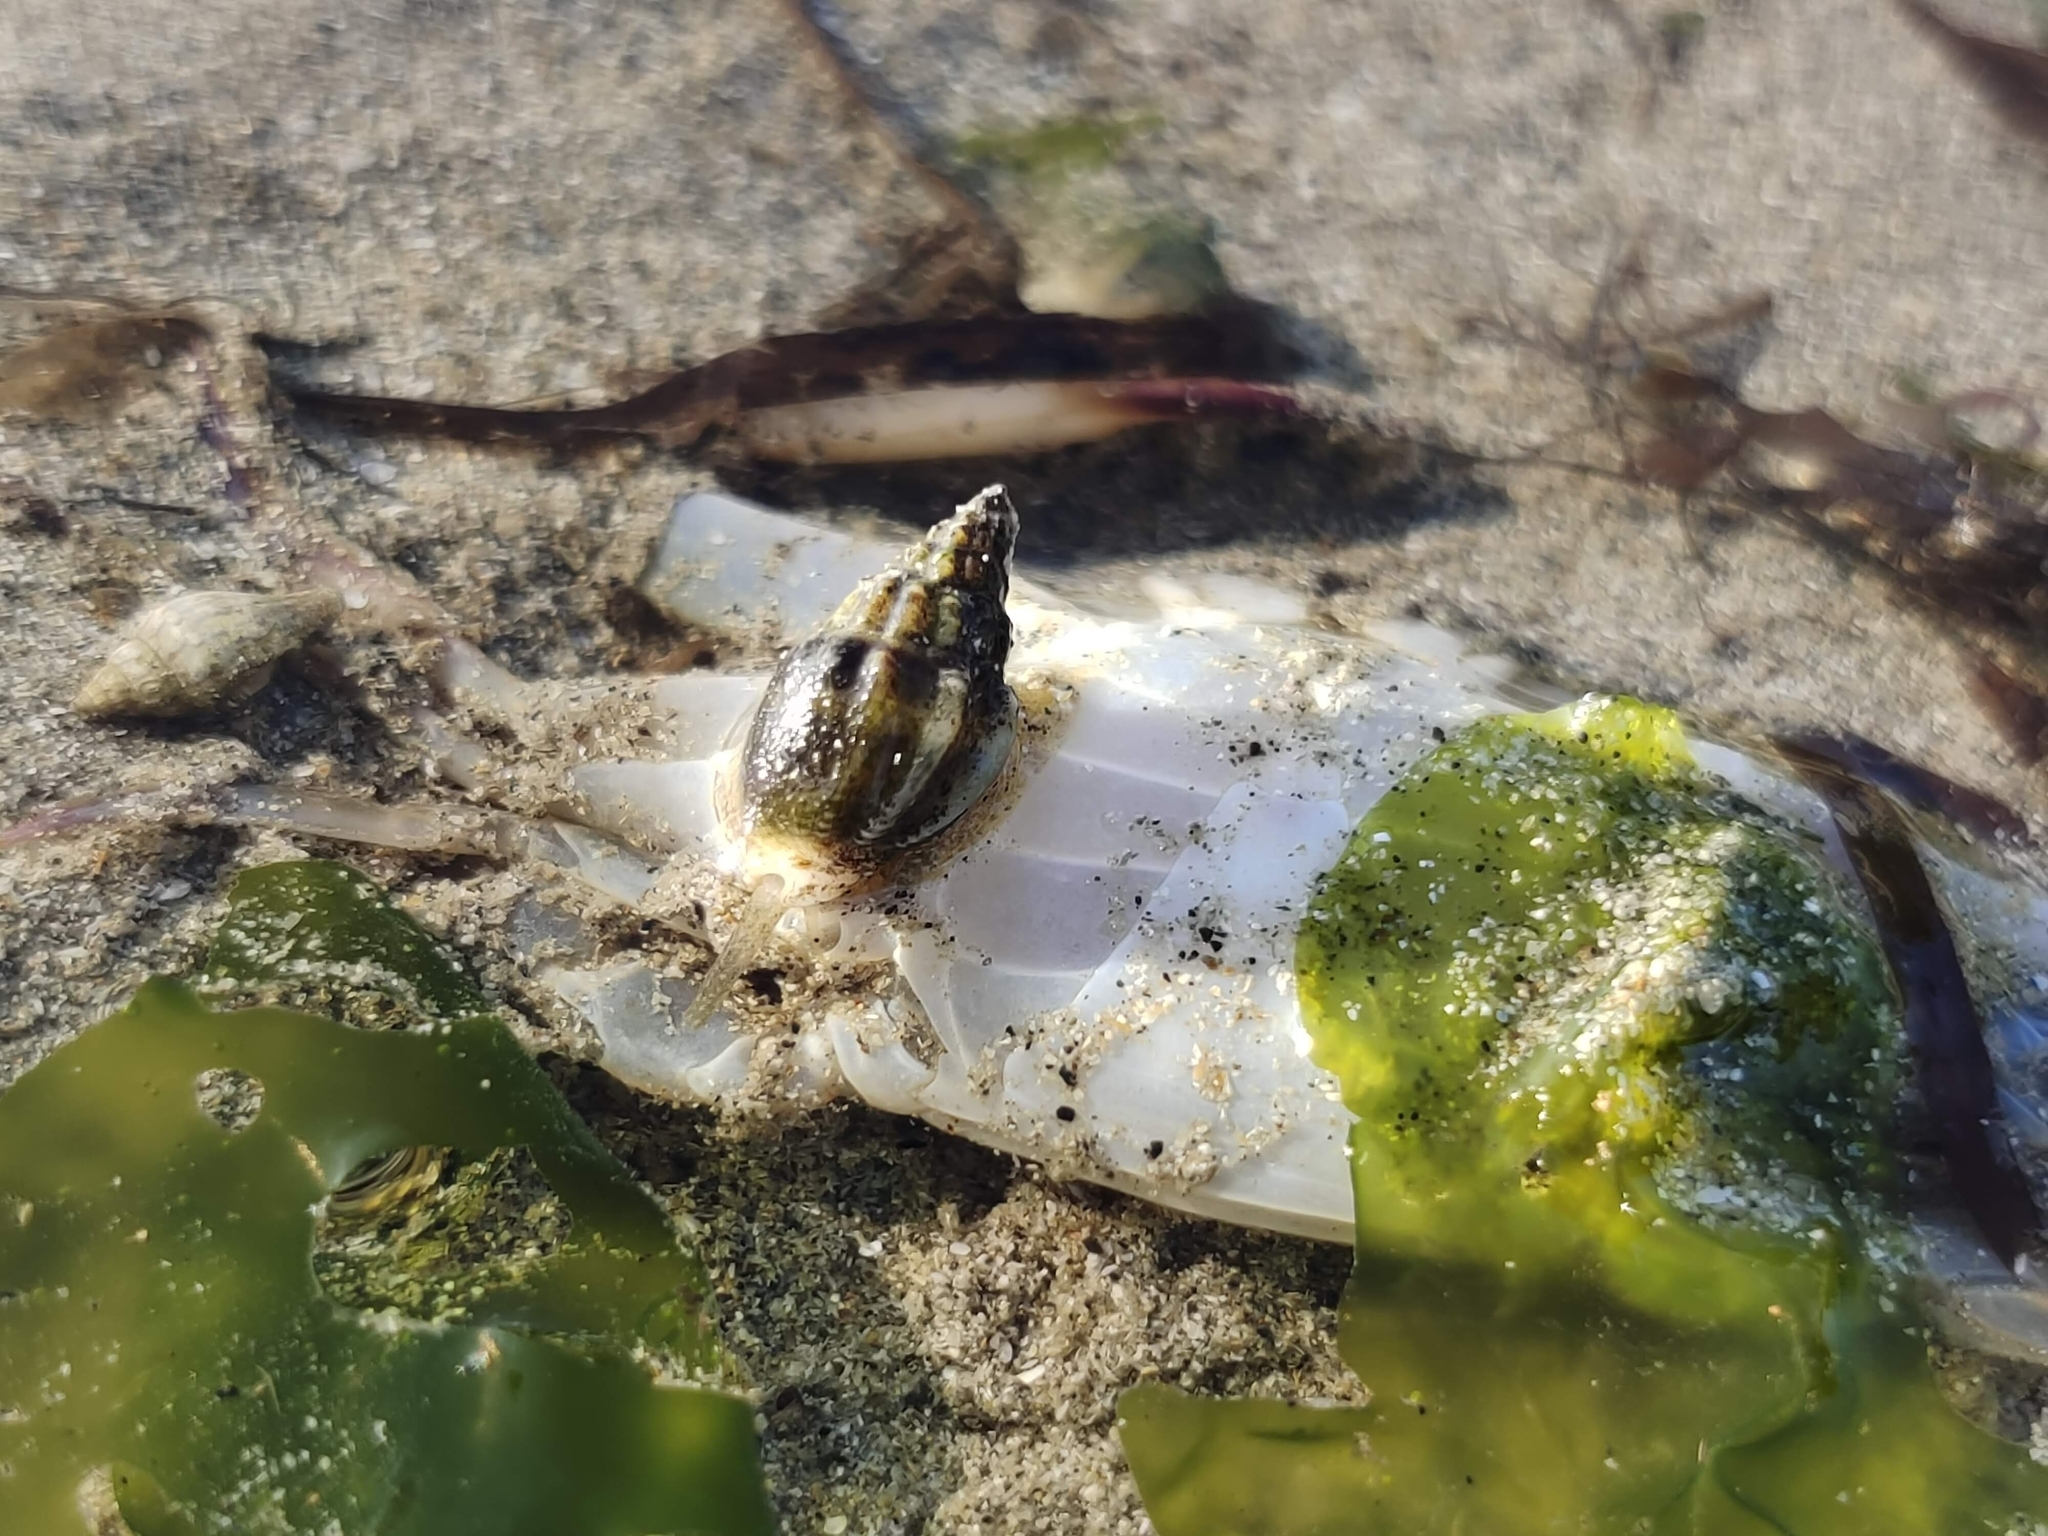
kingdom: Animalia
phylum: Mollusca
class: Gastropoda
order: Neogastropoda
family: Nassariidae
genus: Nassarius
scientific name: Nassarius jacksonianus
